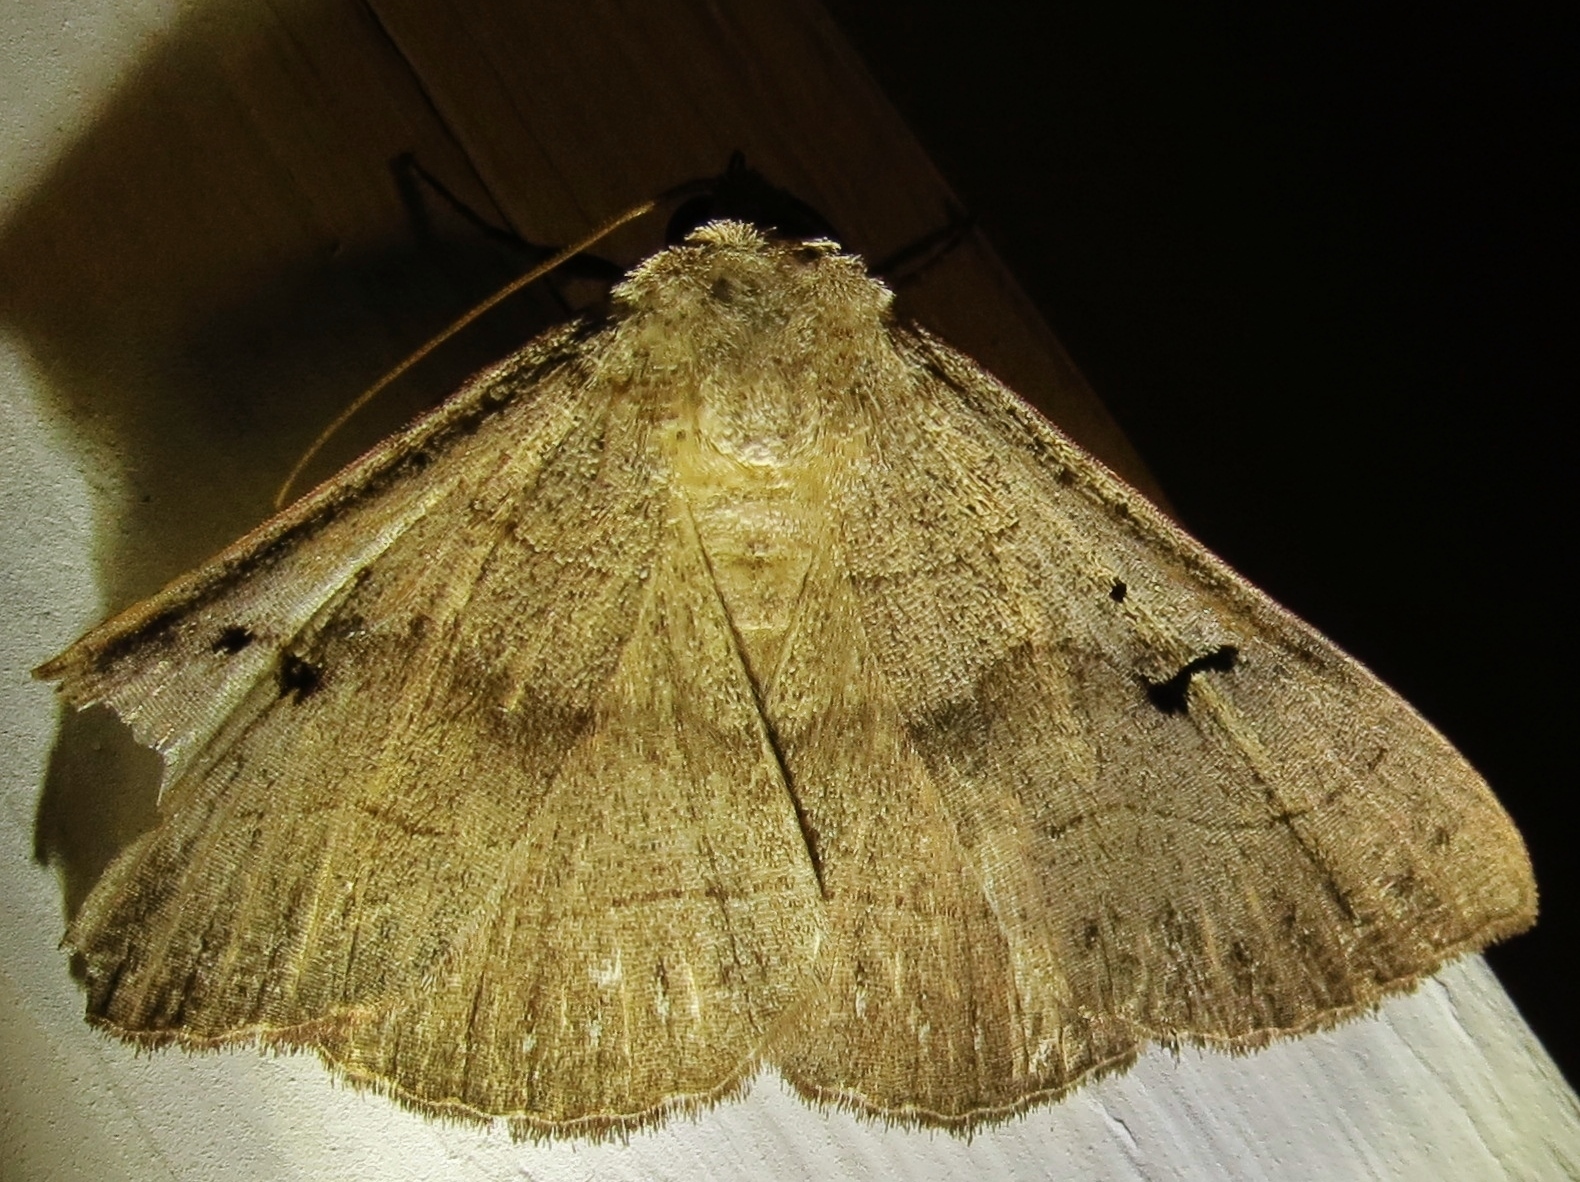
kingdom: Animalia
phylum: Arthropoda
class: Insecta
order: Lepidoptera
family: Erebidae
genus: Panopoda
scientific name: Panopoda carneicosta
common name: Brown panopoda moth
